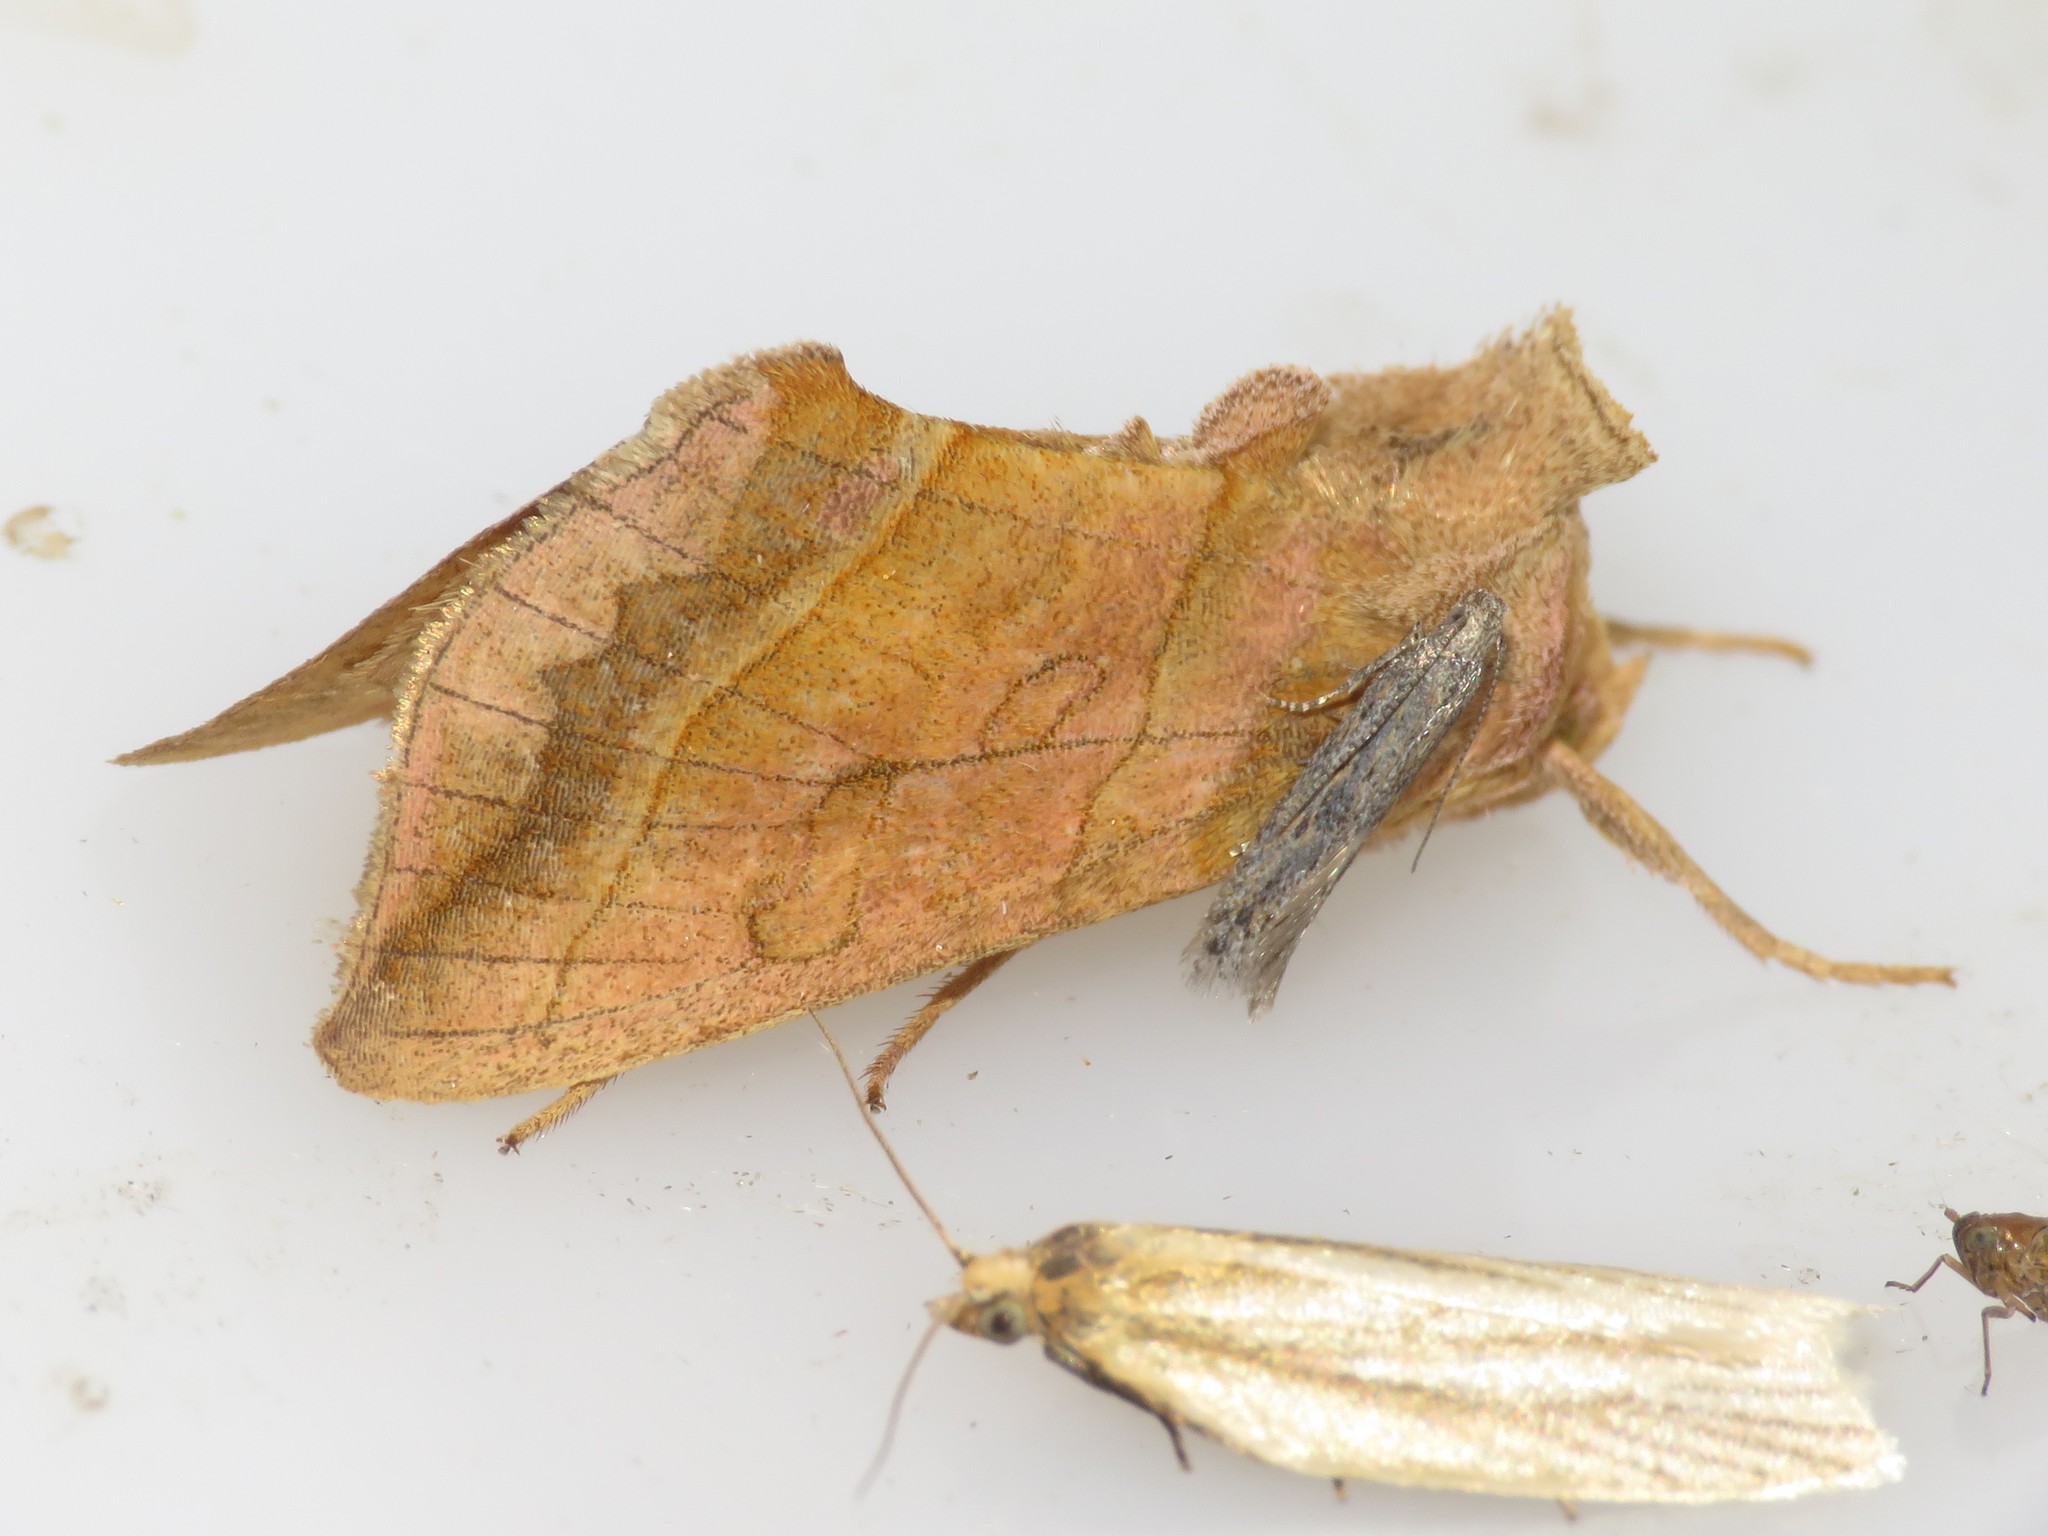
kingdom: Animalia
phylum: Arthropoda
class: Insecta
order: Lepidoptera
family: Noctuidae
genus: Diachrysia
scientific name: Diachrysia aereoides
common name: Dark-spotted looper moth
